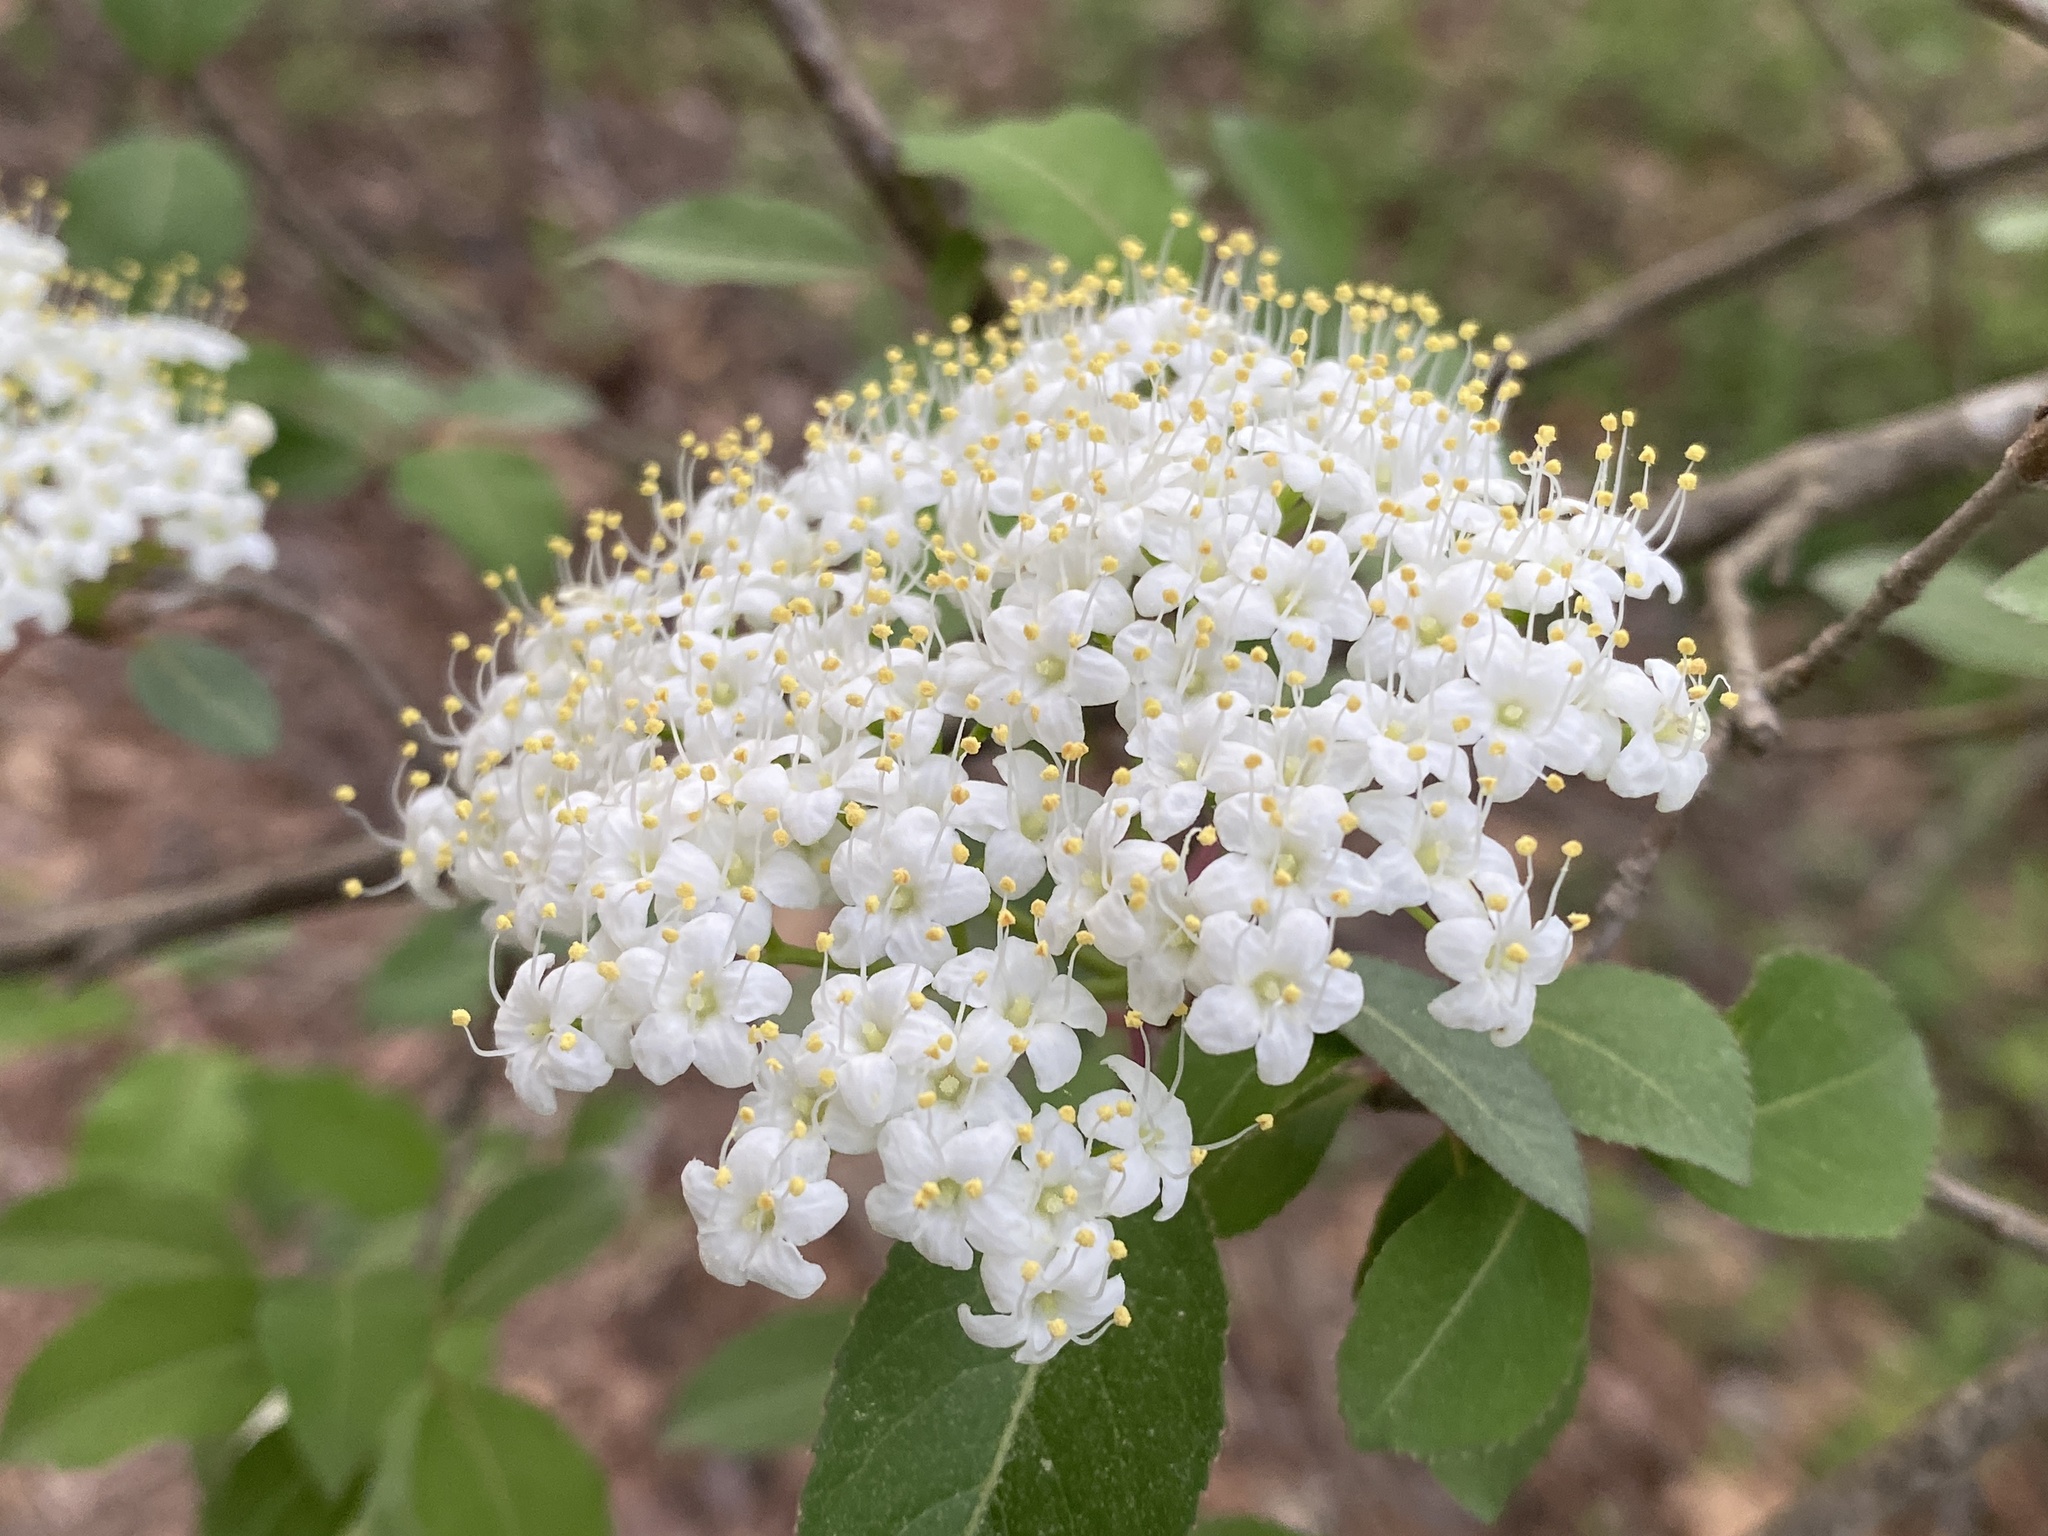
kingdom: Plantae
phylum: Tracheophyta
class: Magnoliopsida
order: Dipsacales
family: Viburnaceae
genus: Viburnum
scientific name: Viburnum prunifolium
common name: Black haw
